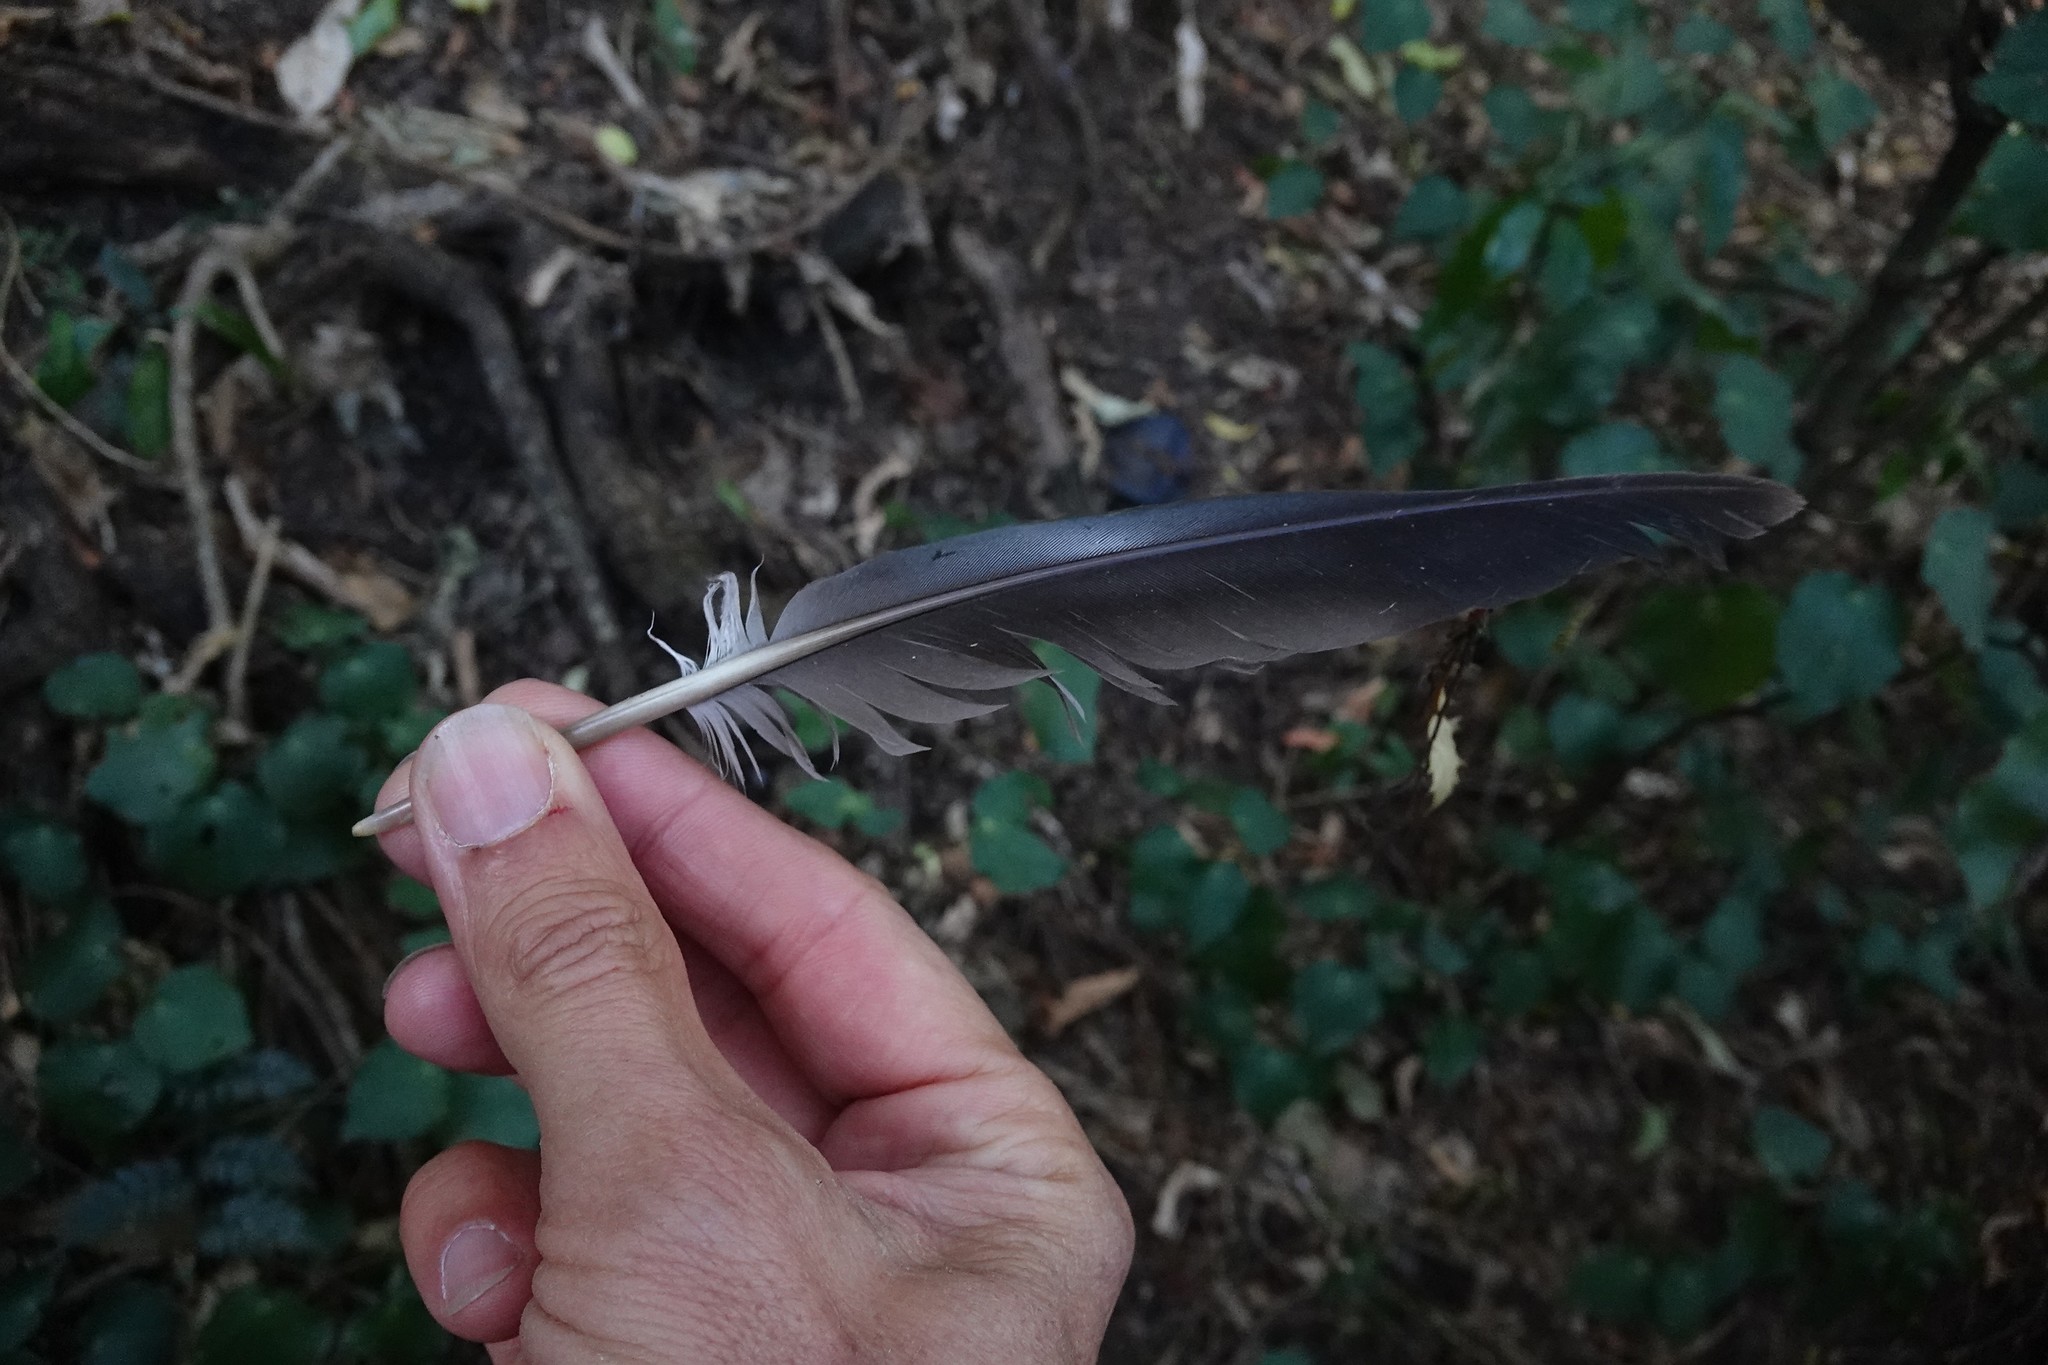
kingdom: Animalia
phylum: Chordata
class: Aves
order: Columbiformes
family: Columbidae
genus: Hemiphaga
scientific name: Hemiphaga novaeseelandiae
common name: New zealand pigeon
